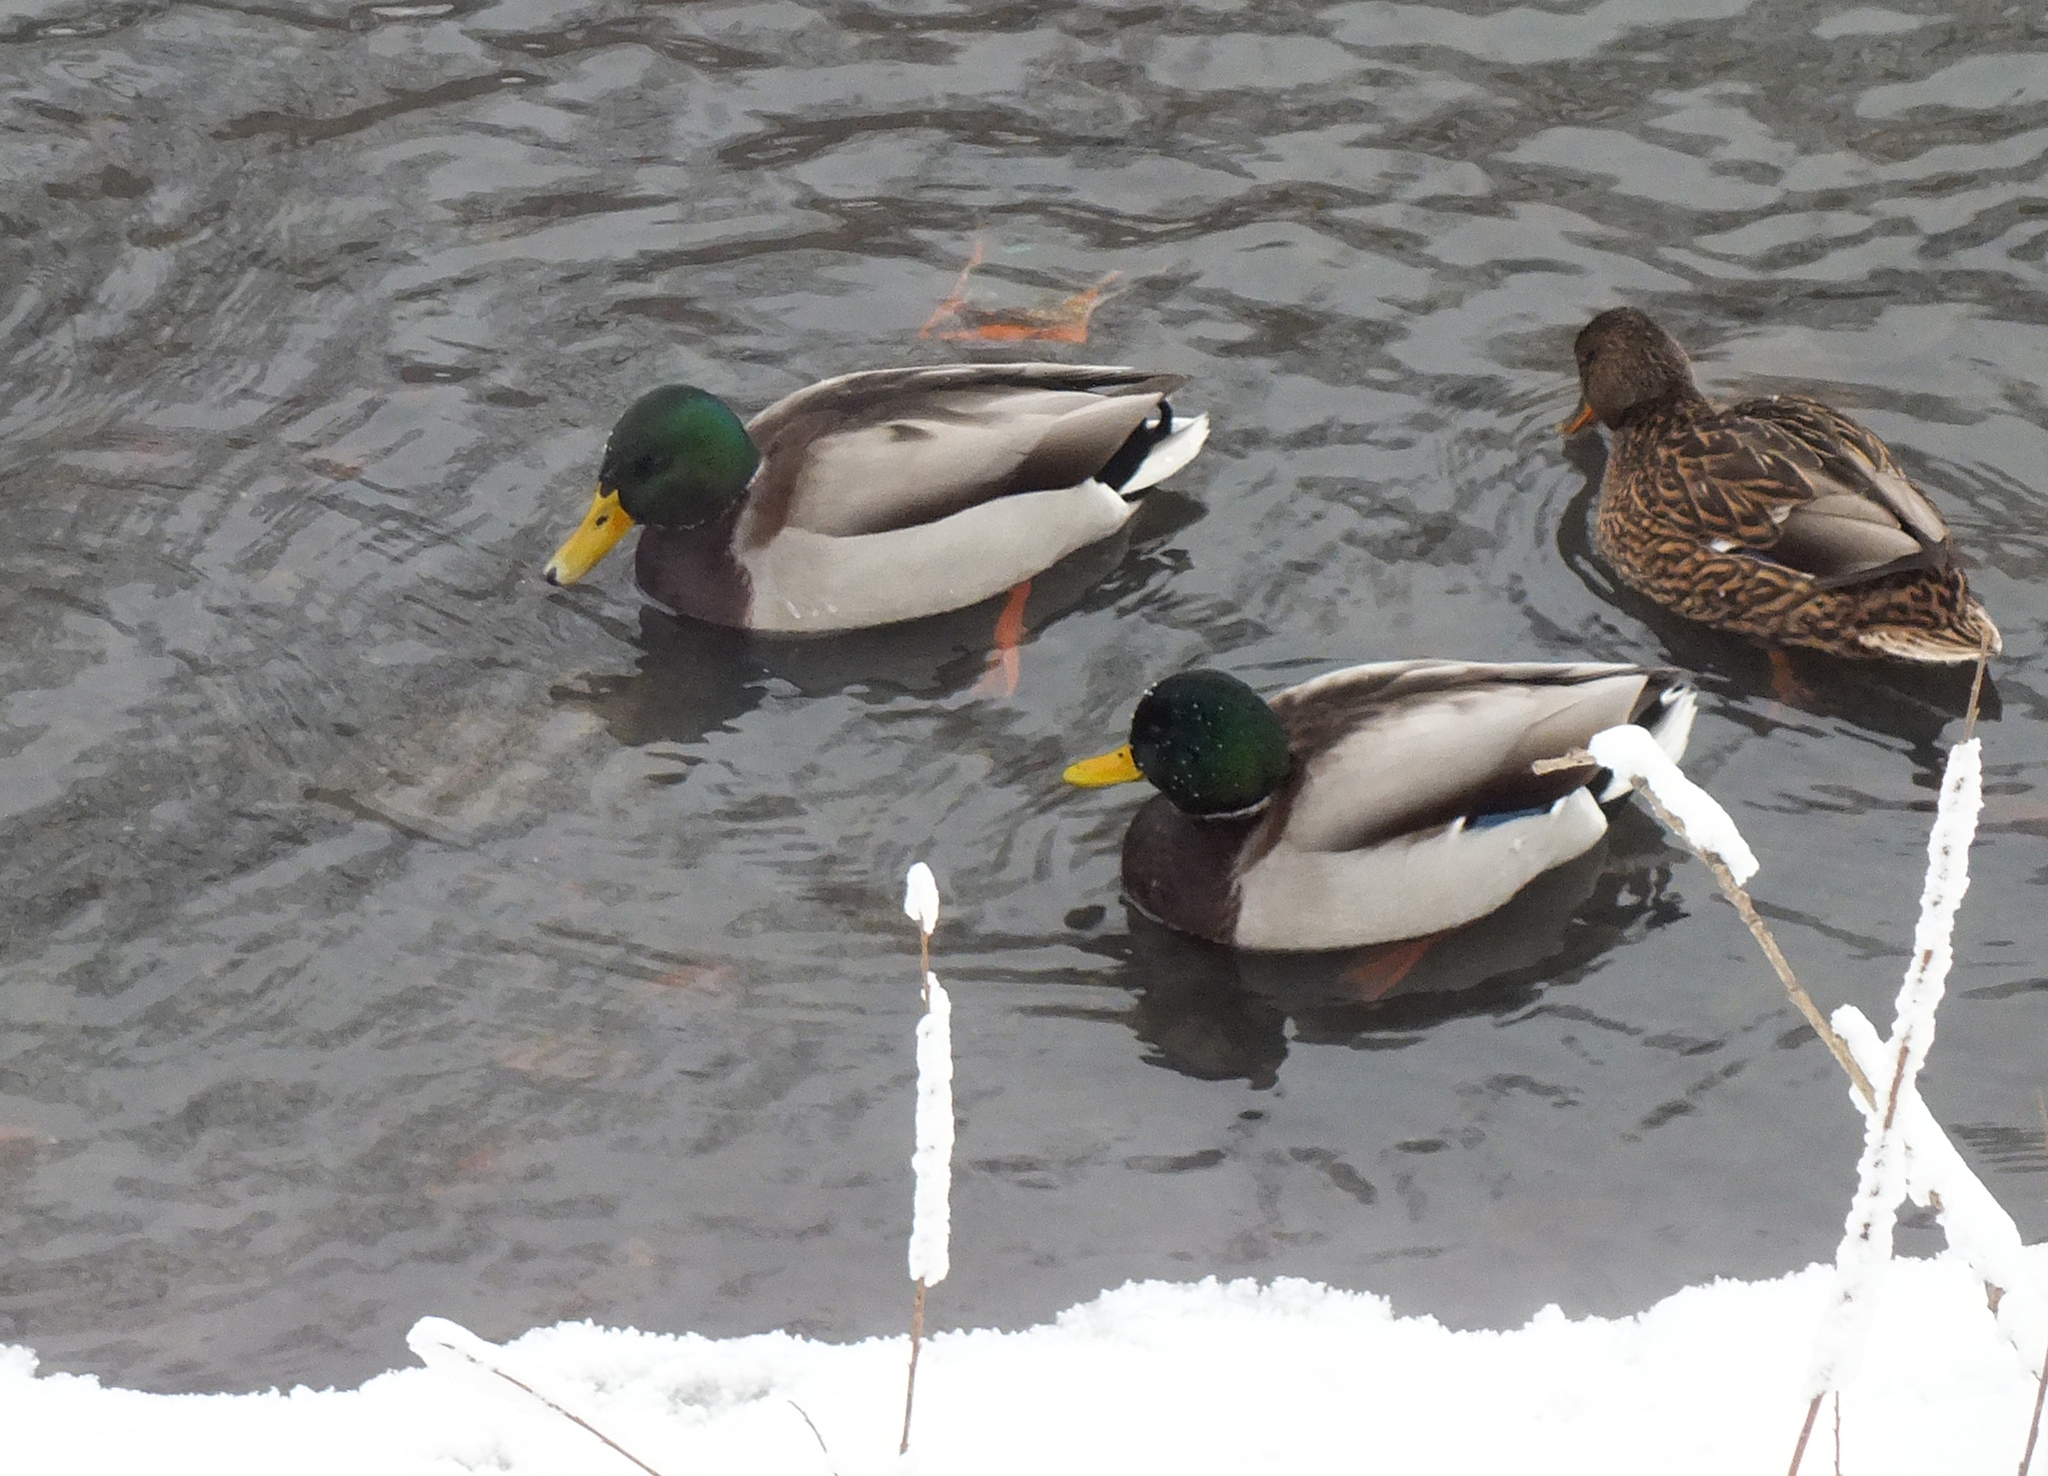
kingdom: Animalia
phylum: Chordata
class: Aves
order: Anseriformes
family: Anatidae
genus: Anas
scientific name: Anas platyrhynchos
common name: Mallard
